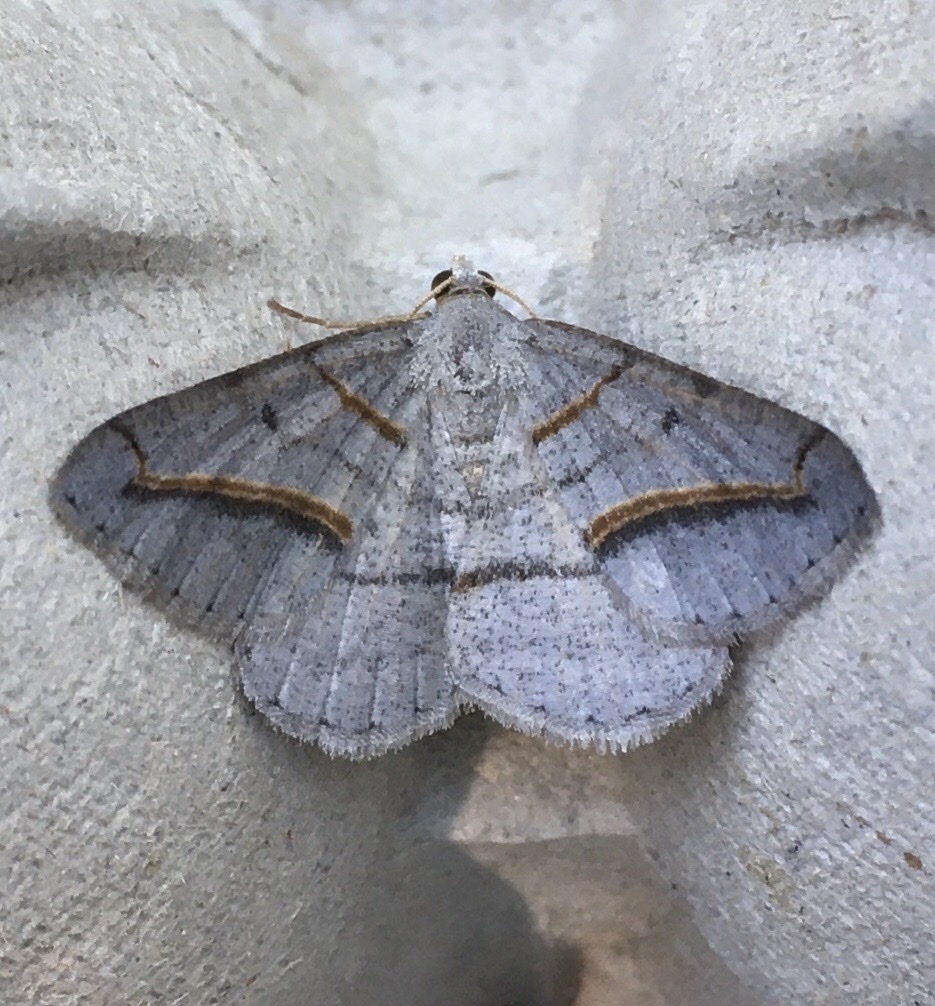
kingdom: Animalia
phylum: Arthropoda
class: Insecta
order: Lepidoptera
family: Geometridae
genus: Digrammia
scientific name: Digrammia mellistrigata
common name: Yellow-lined angle
